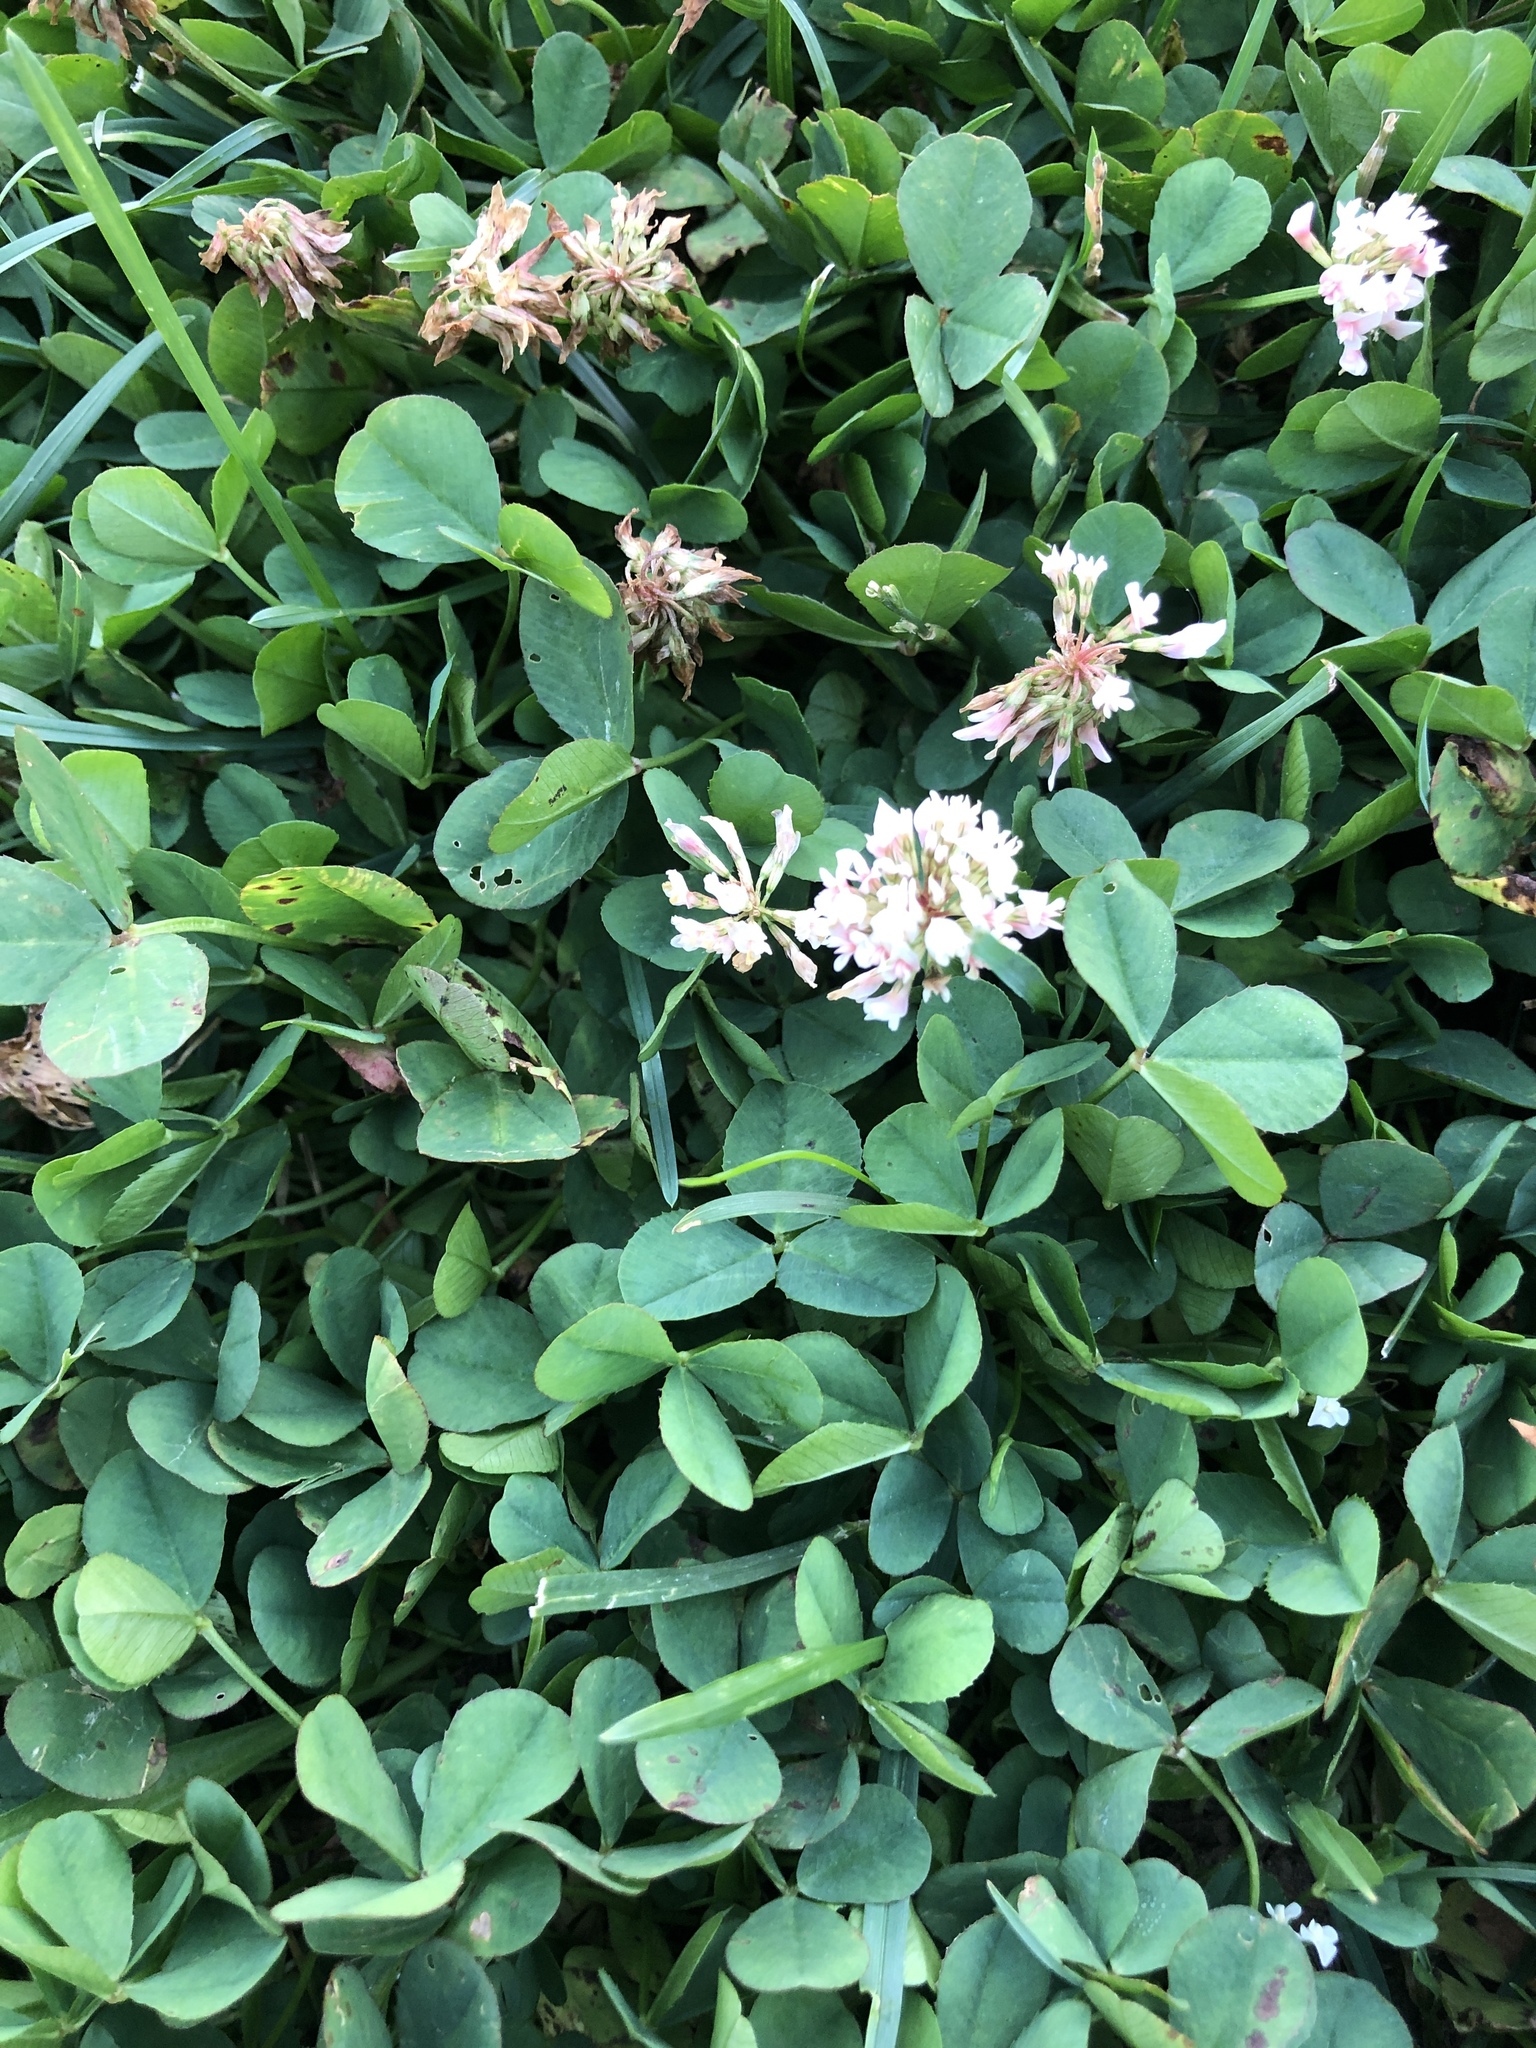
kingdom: Plantae
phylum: Tracheophyta
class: Magnoliopsida
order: Fabales
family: Fabaceae
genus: Trifolium
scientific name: Trifolium repens
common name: White clover
